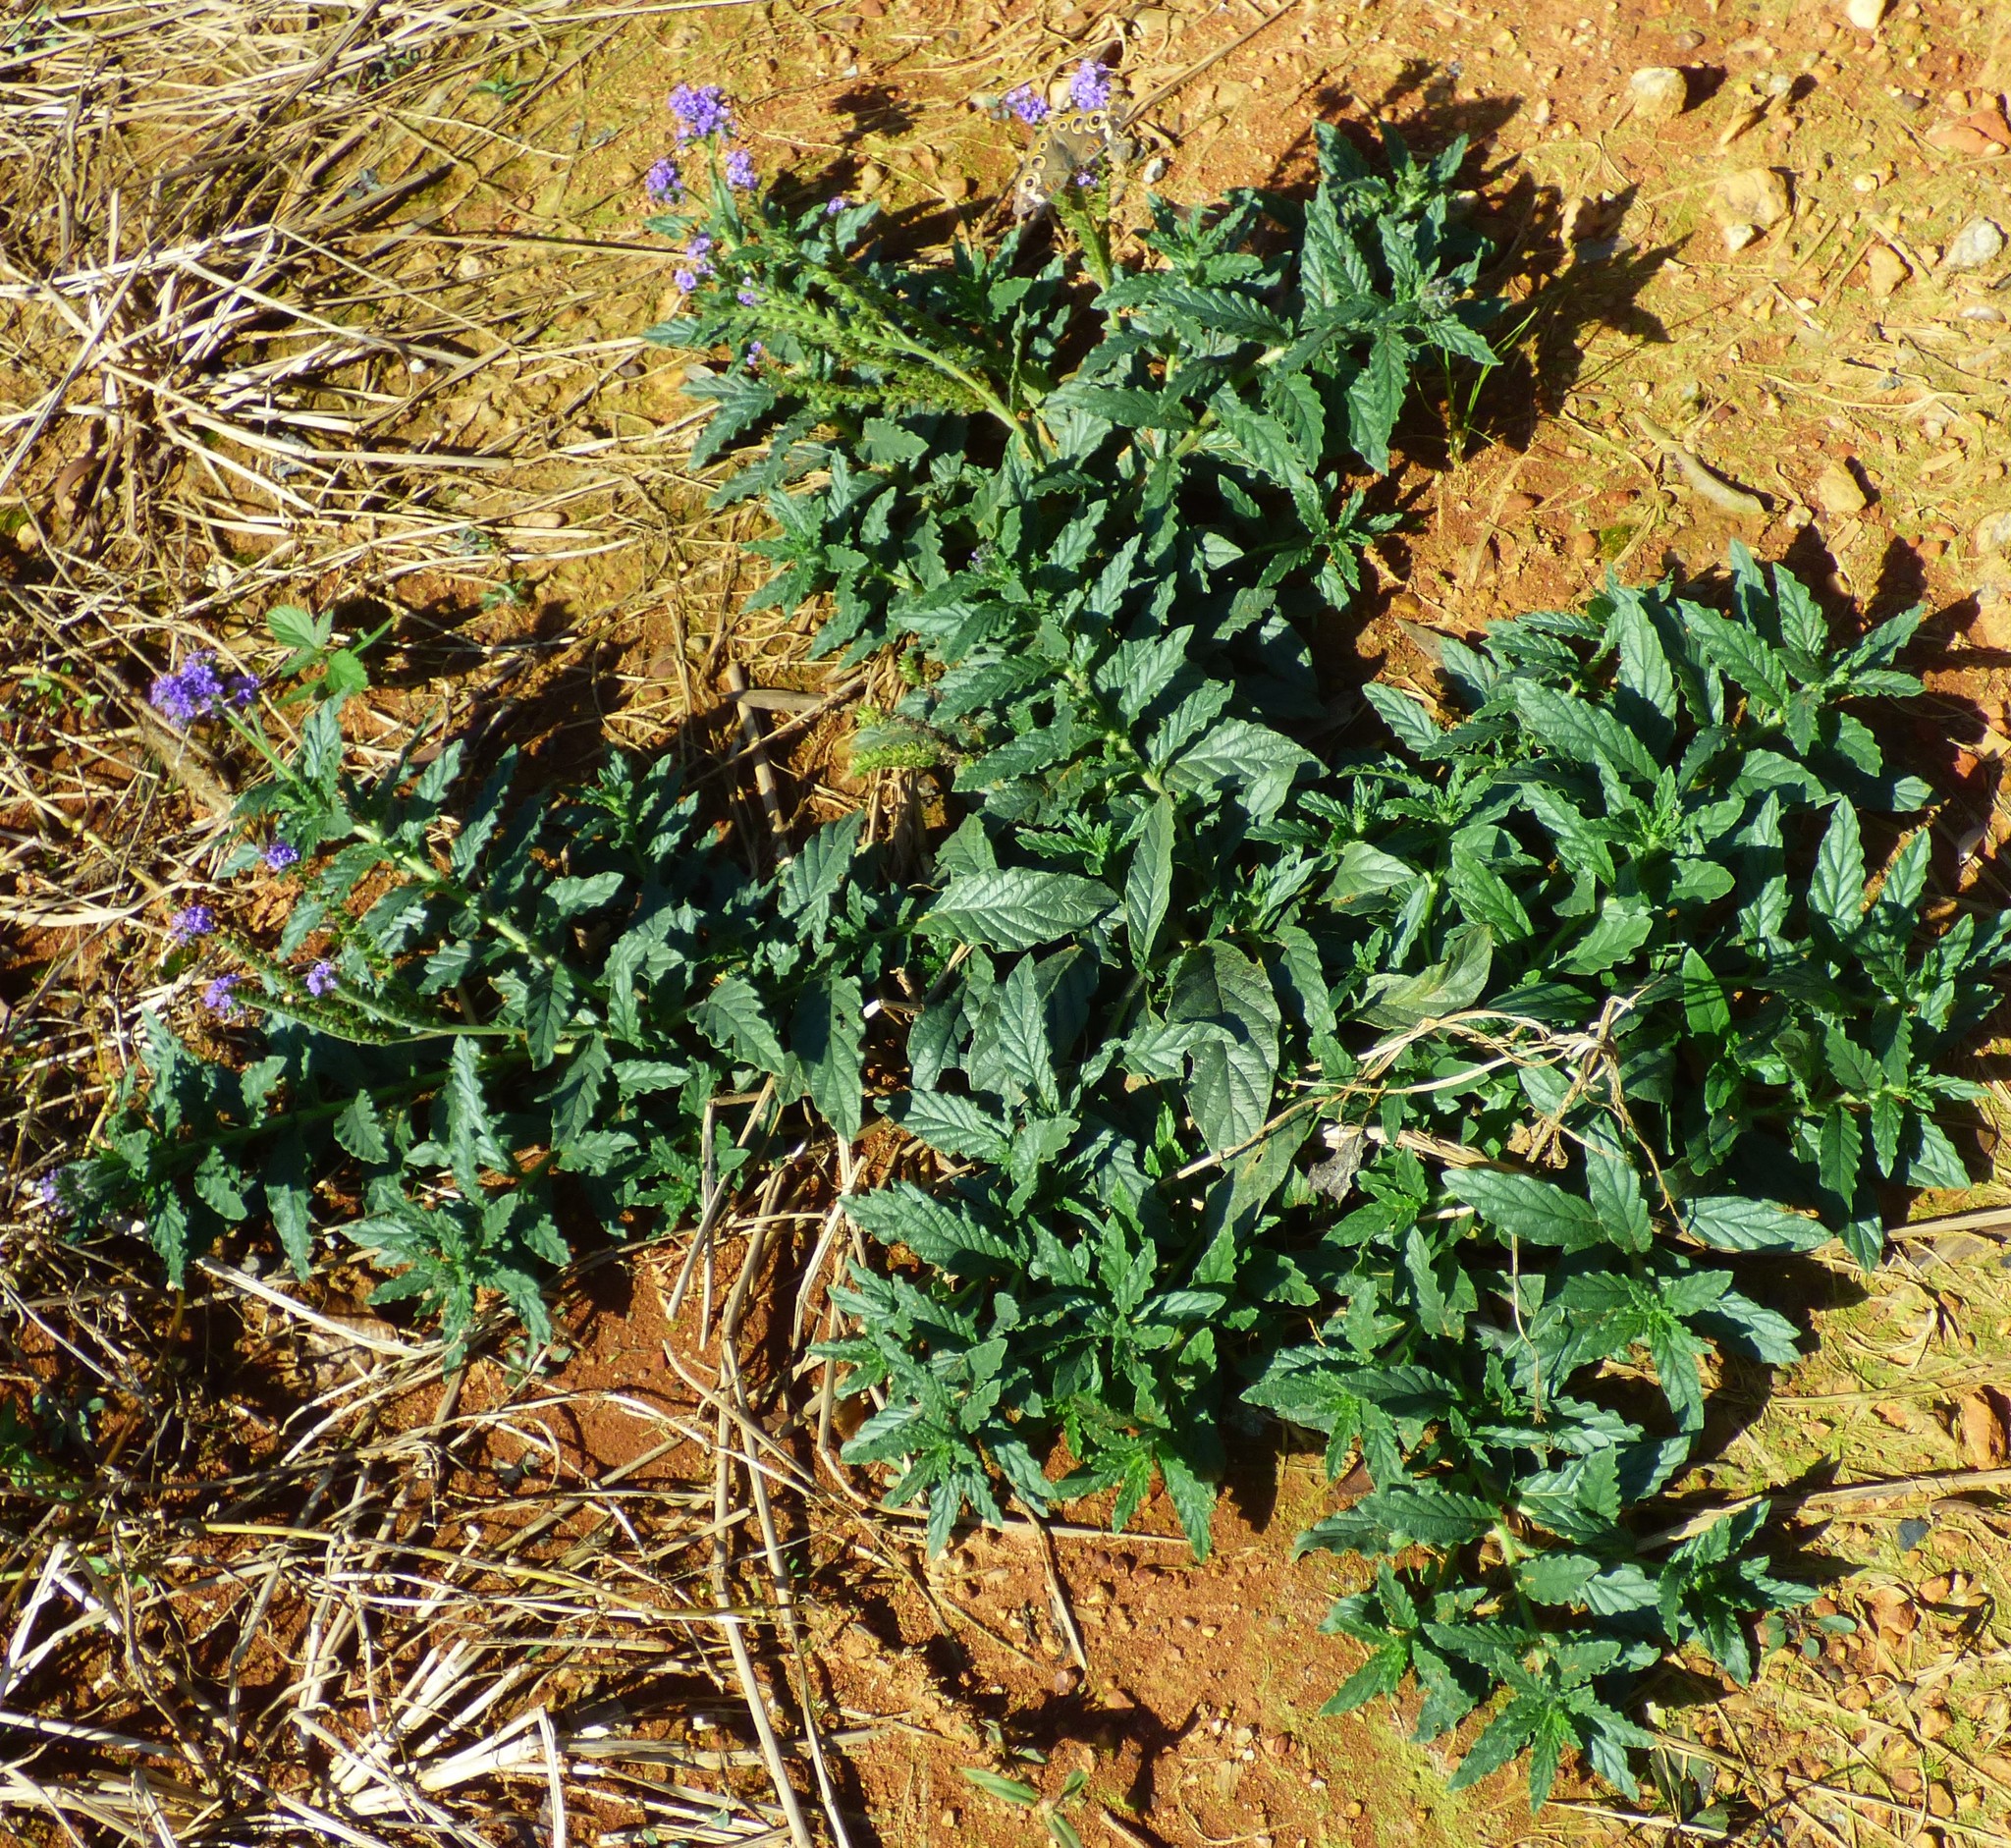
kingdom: Plantae
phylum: Tracheophyta
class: Magnoliopsida
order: Boraginales
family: Heliotropiaceae
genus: Heliotropium
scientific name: Heliotropium amplexicaule
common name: Clasping heliotrope
